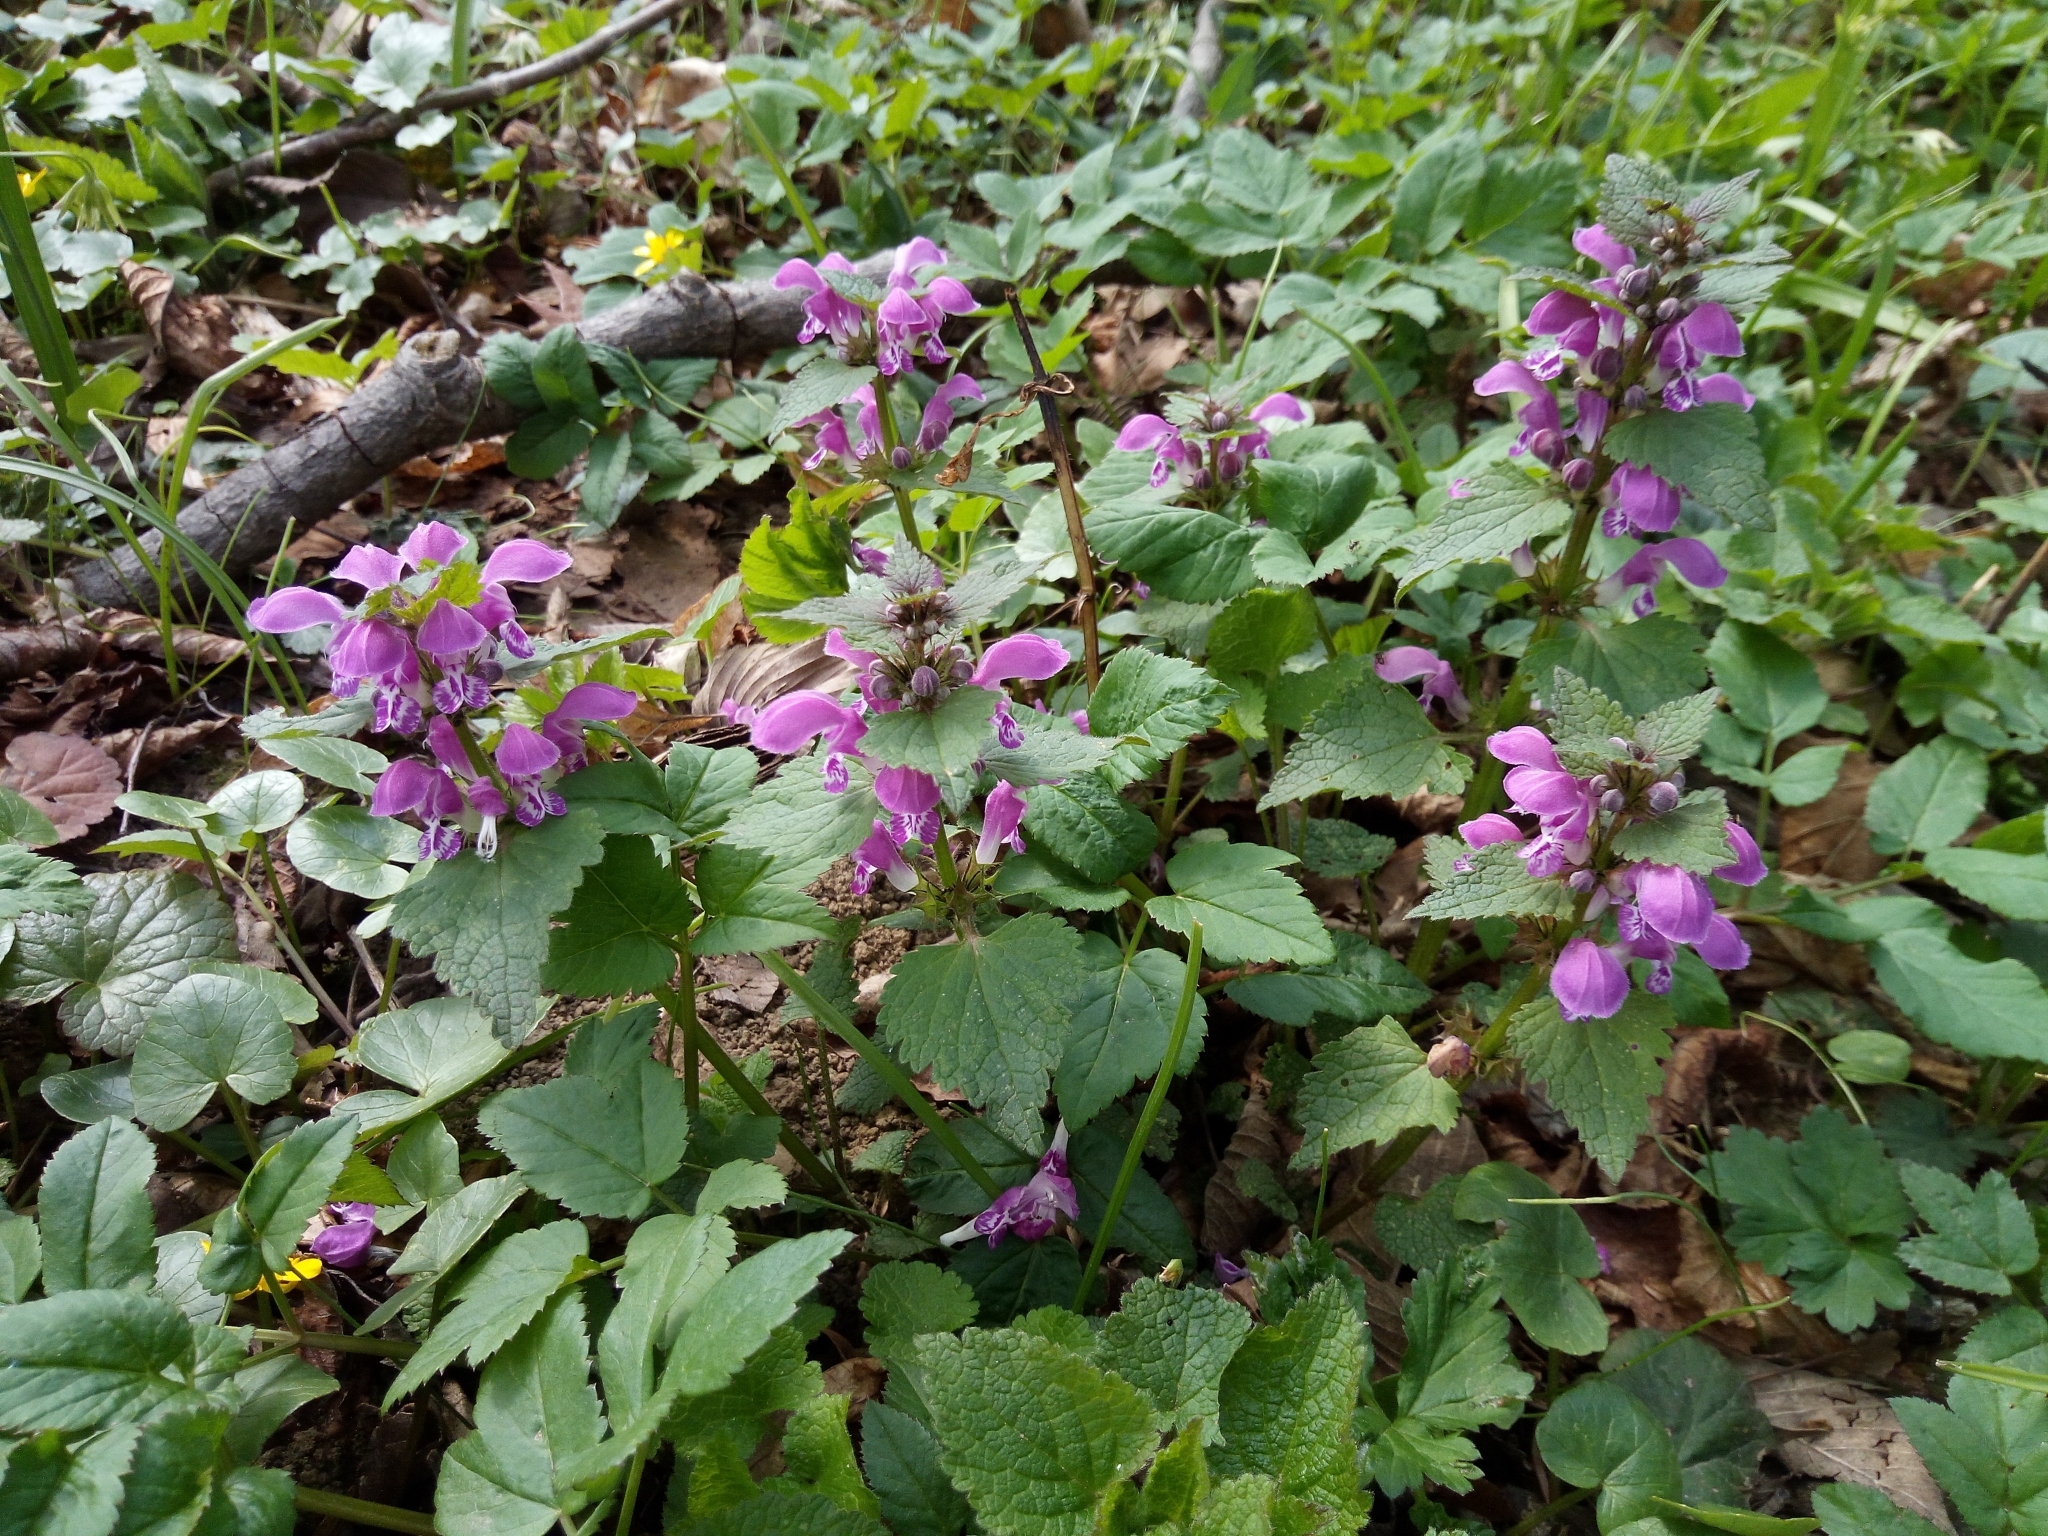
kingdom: Plantae
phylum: Tracheophyta
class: Magnoliopsida
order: Lamiales
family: Lamiaceae
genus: Lamium
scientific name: Lamium maculatum
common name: Spotted dead-nettle
